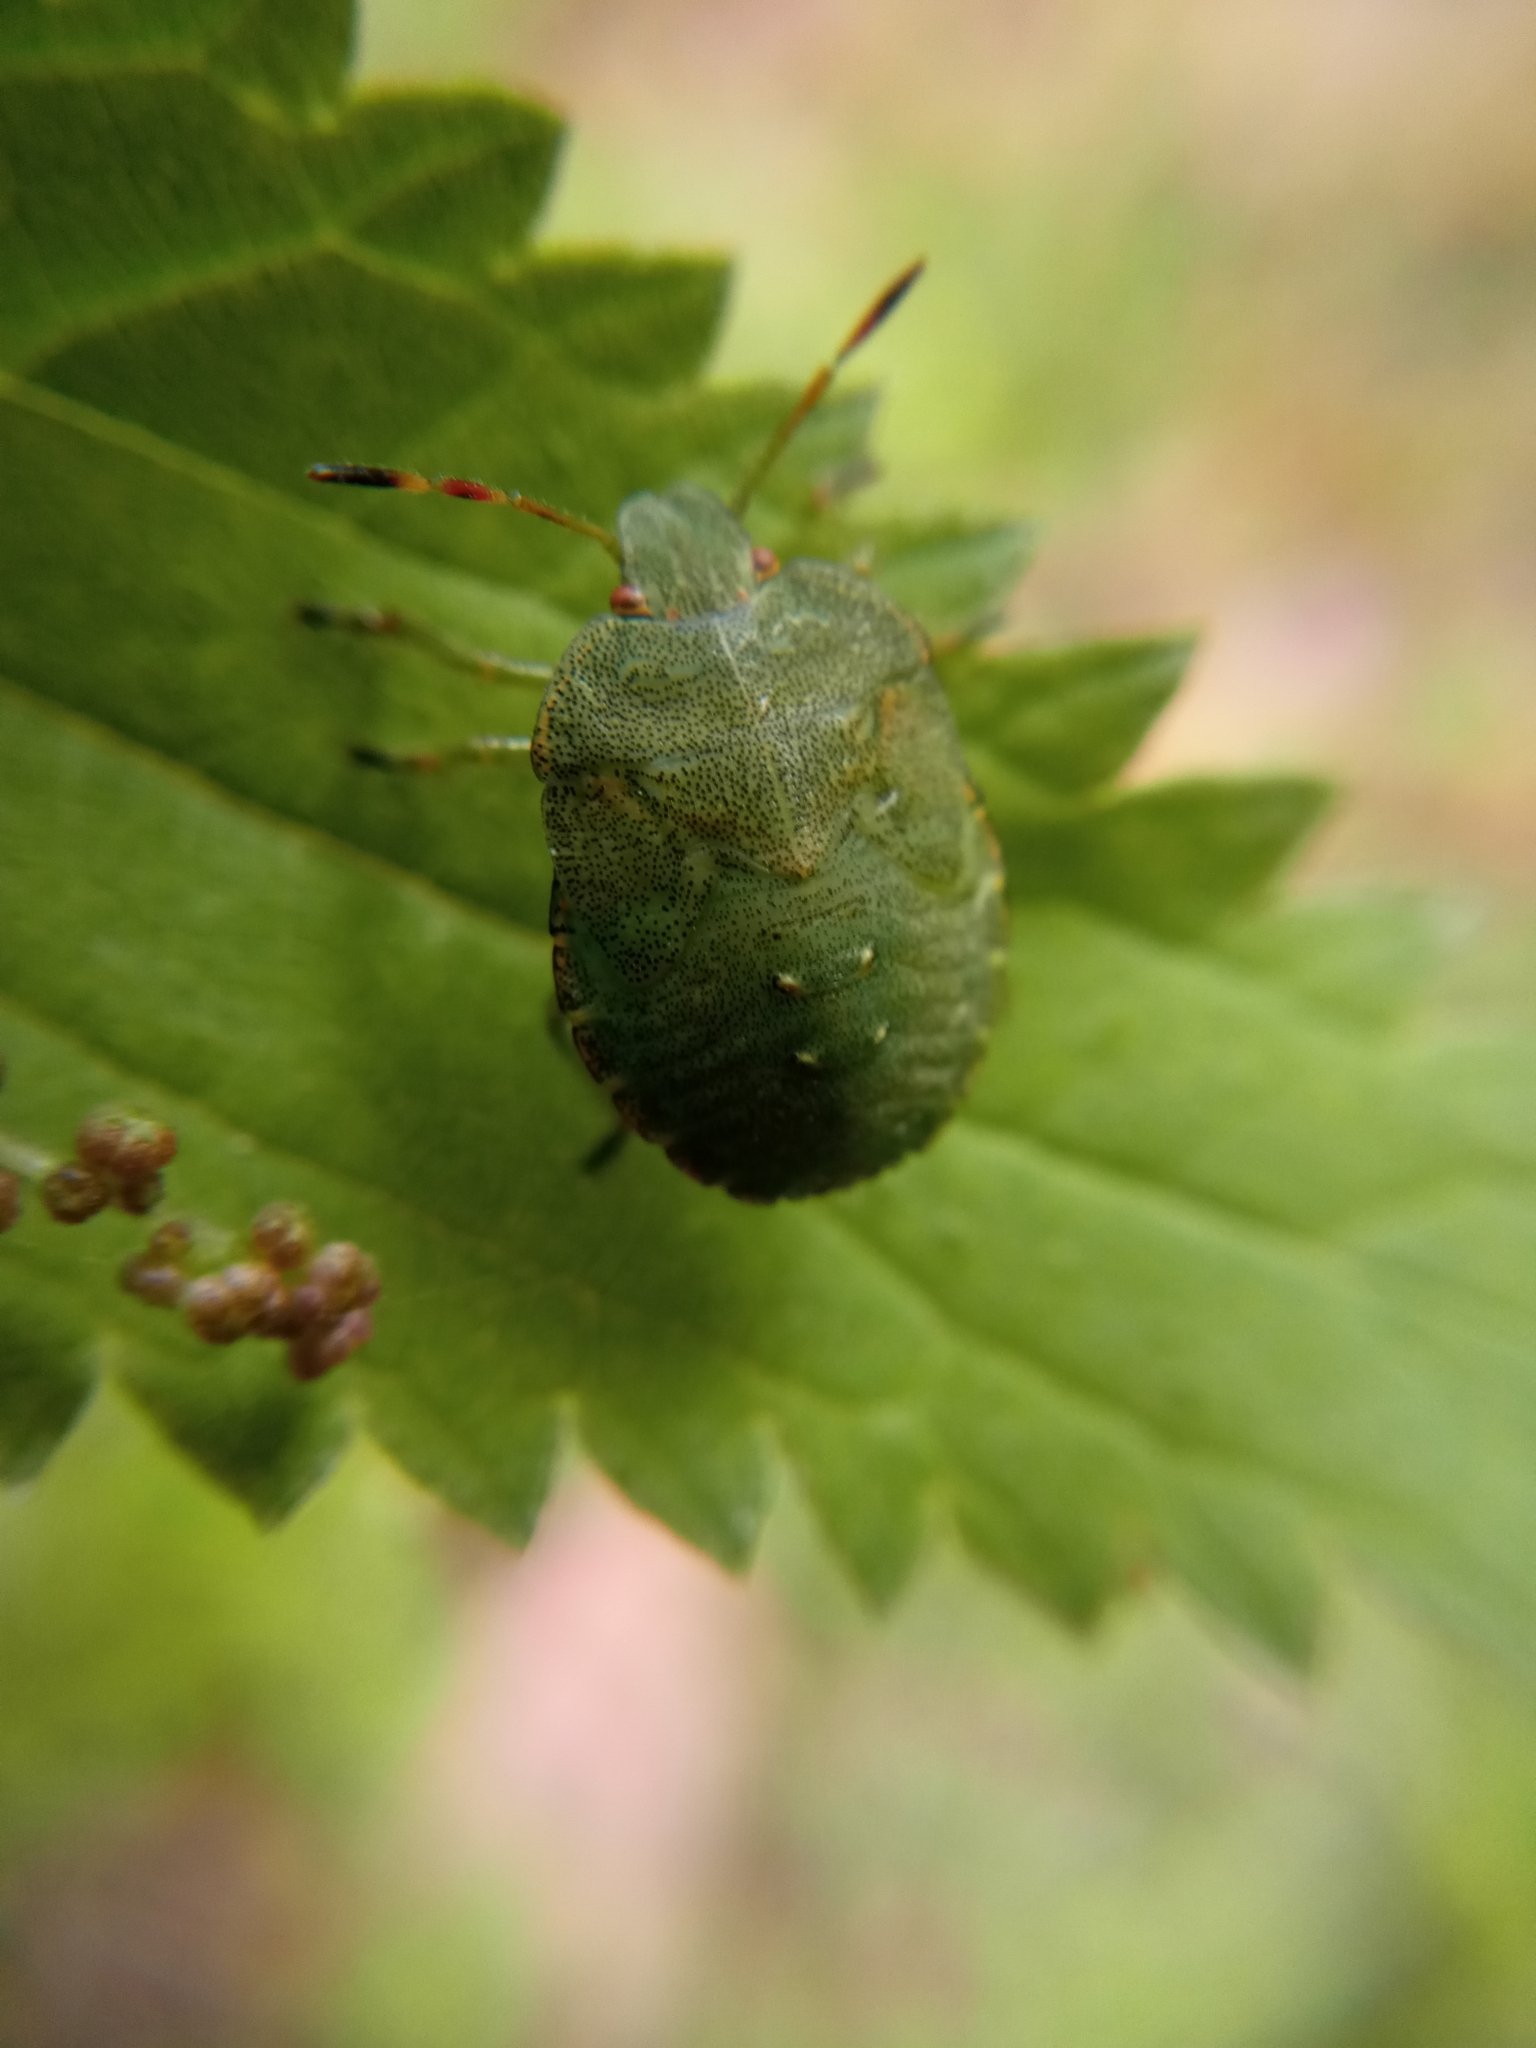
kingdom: Animalia
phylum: Arthropoda
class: Insecta
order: Hemiptera
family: Pentatomidae
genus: Palomena
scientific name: Palomena prasina
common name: Green shieldbug
